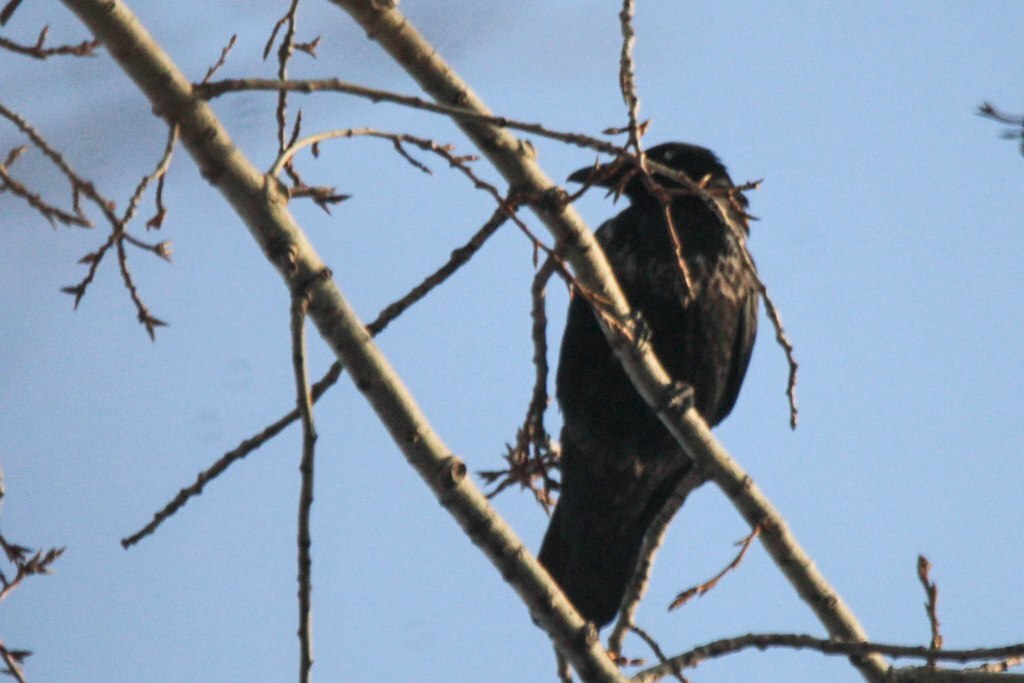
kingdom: Animalia
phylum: Chordata
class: Aves
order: Passeriformes
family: Corvidae
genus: Corvus
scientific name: Corvus
